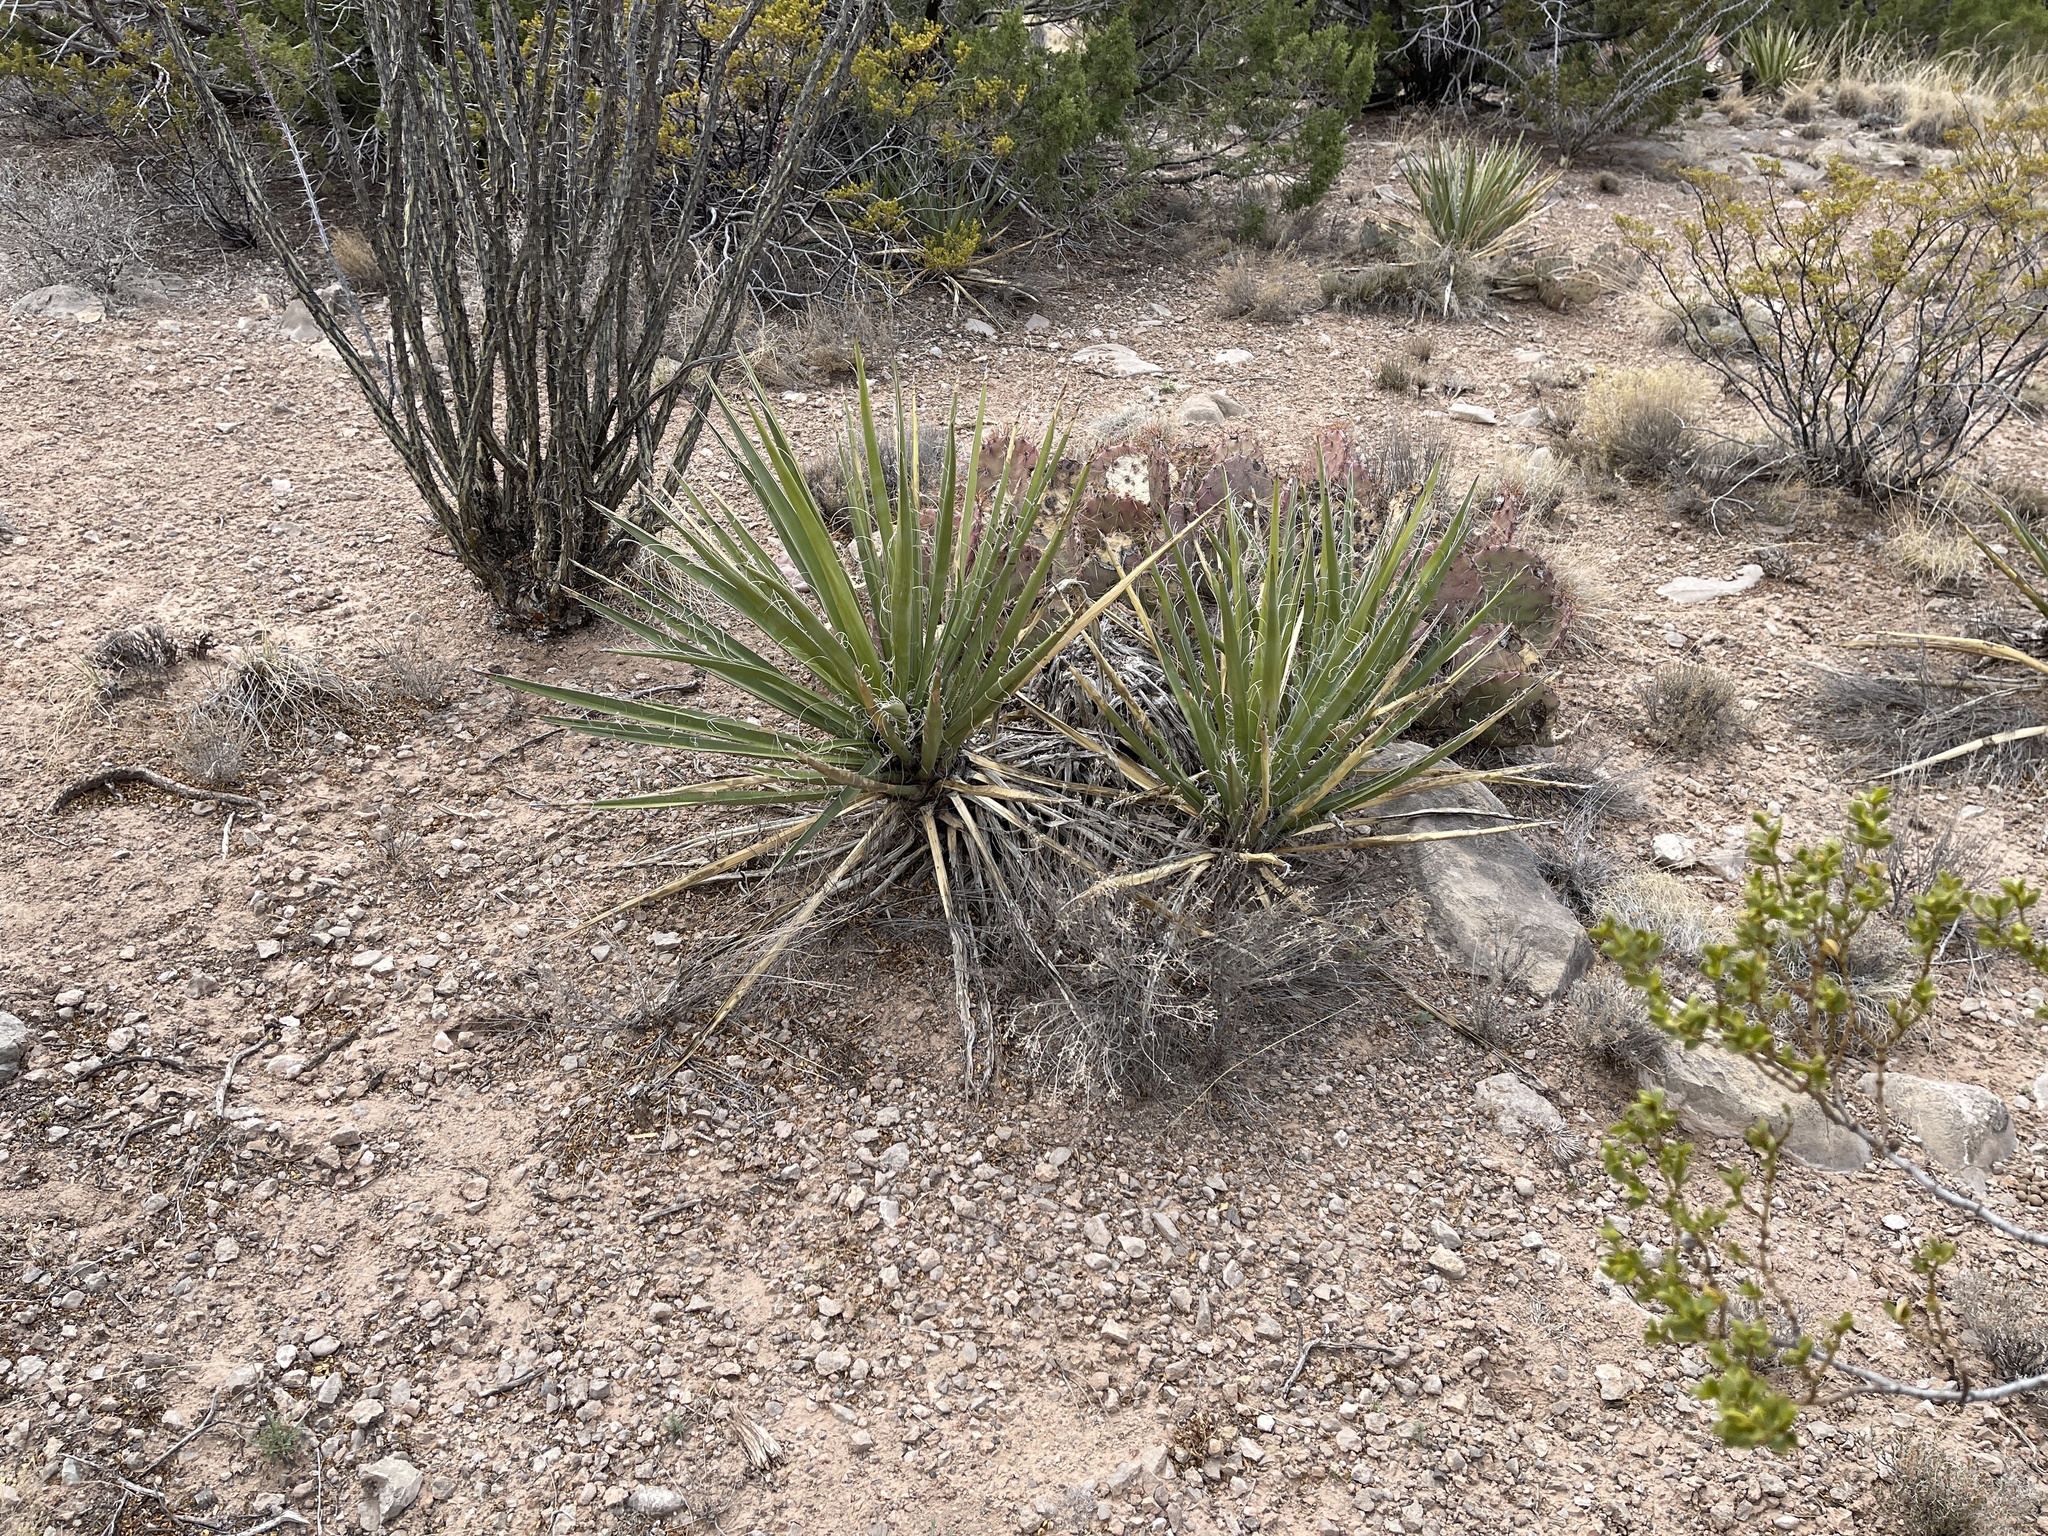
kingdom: Plantae
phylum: Tracheophyta
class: Liliopsida
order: Asparagales
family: Asparagaceae
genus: Yucca
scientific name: Yucca treculiana
